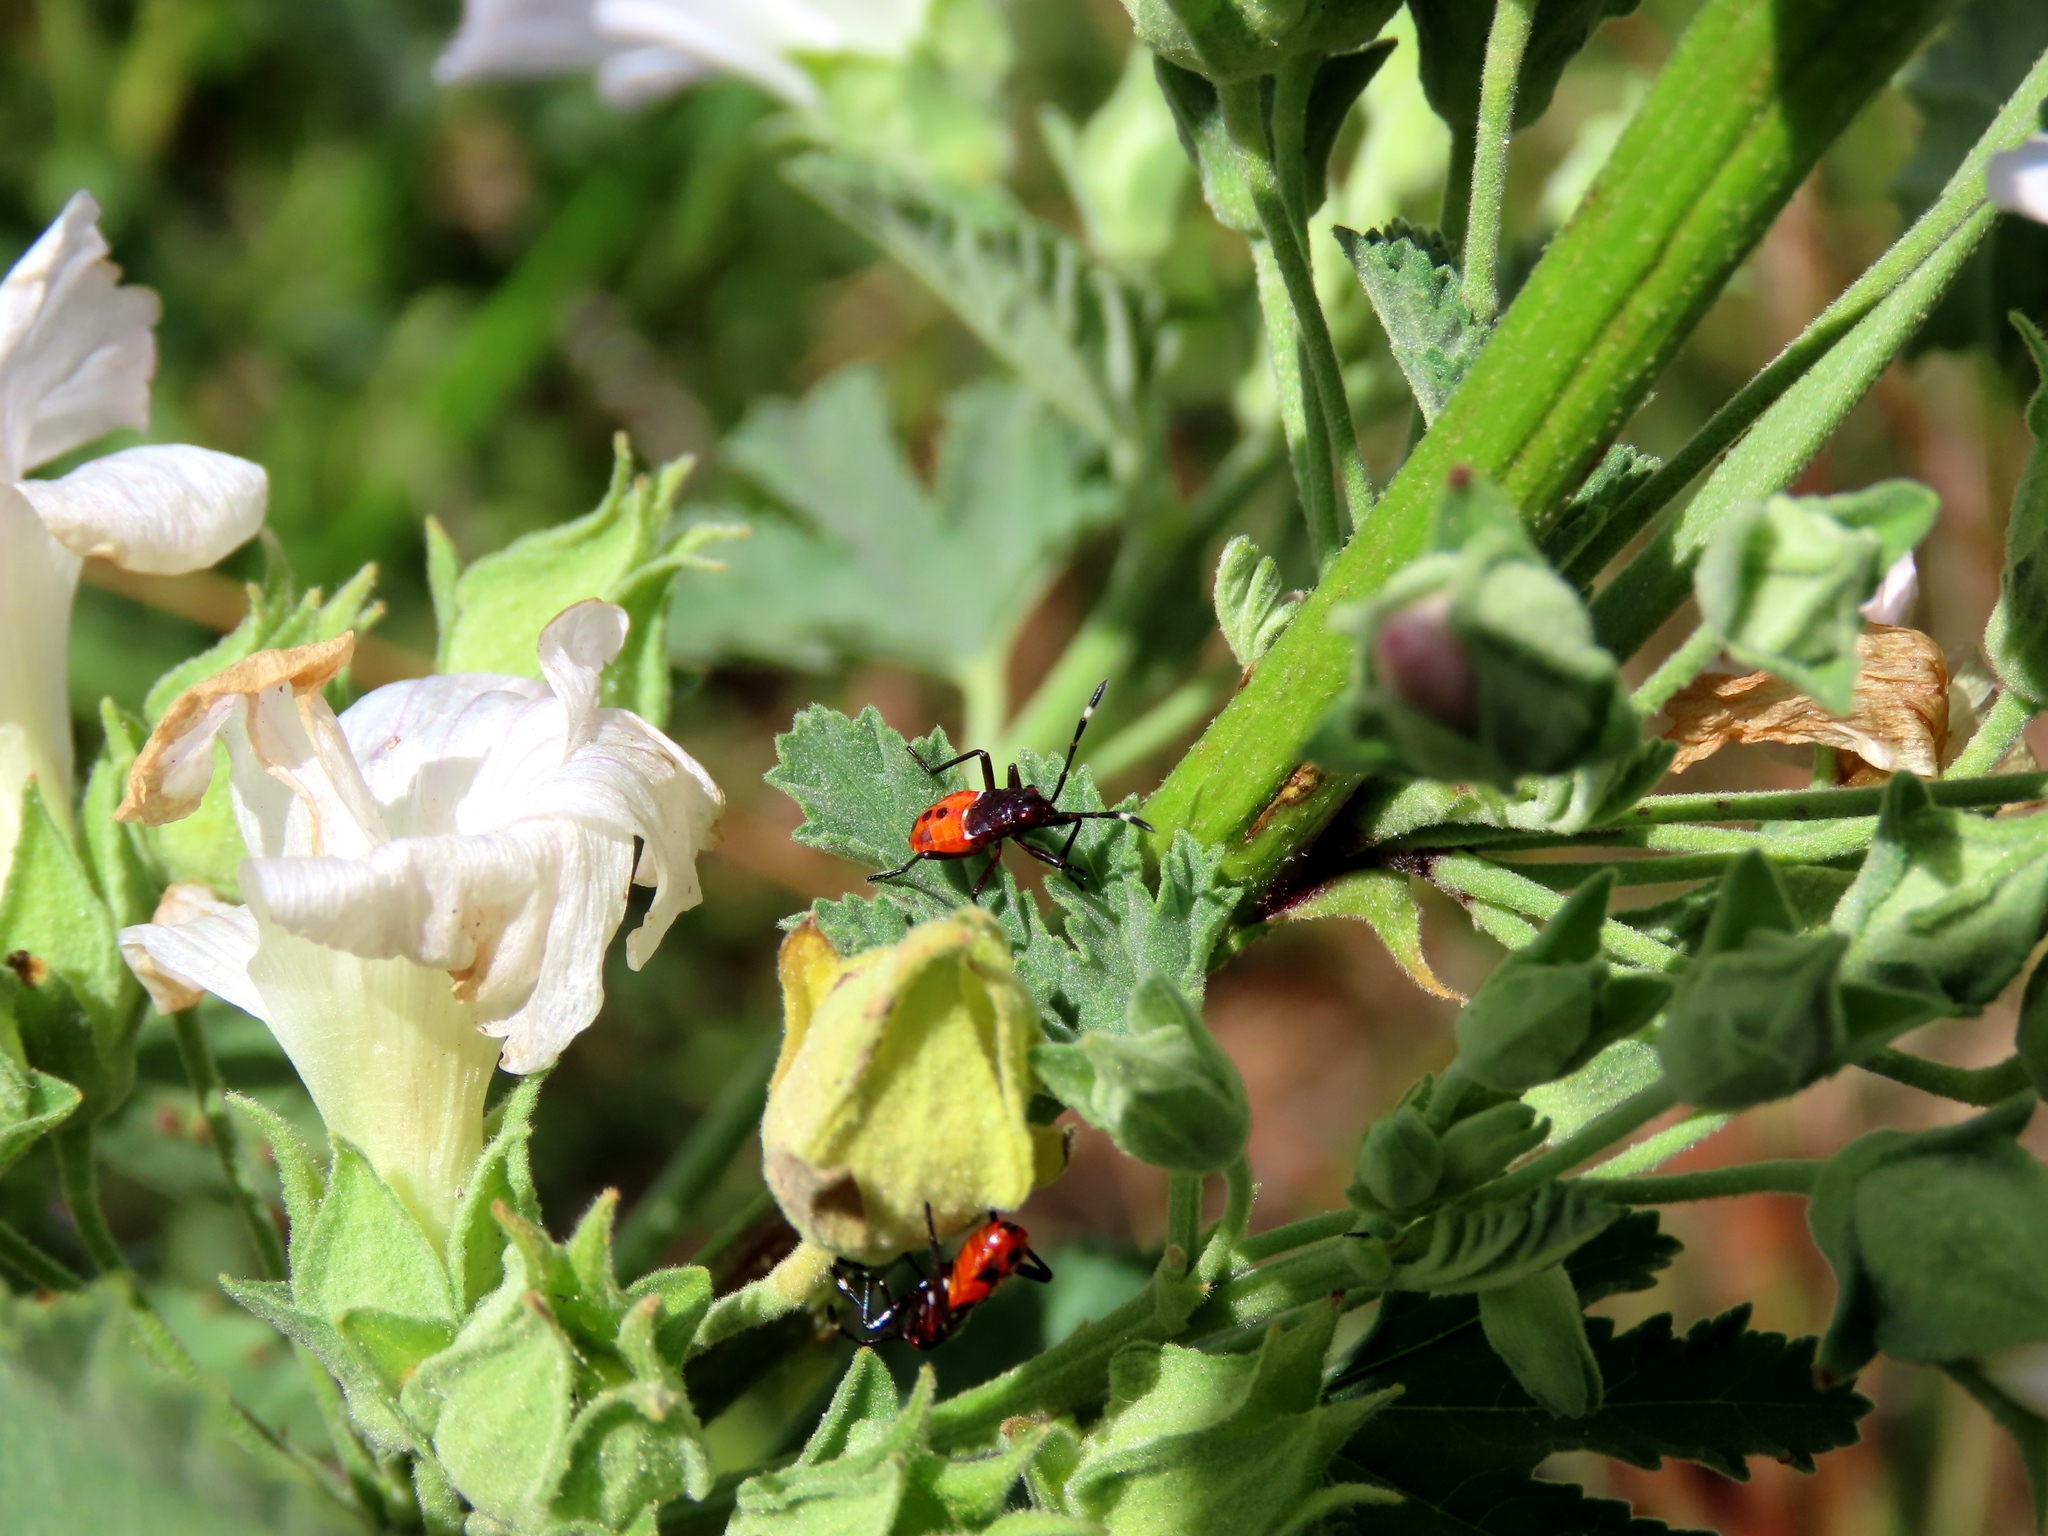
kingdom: Animalia
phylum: Arthropoda
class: Insecta
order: Hemiptera
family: Pyrrhocoridae
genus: Dindymus
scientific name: Dindymus
